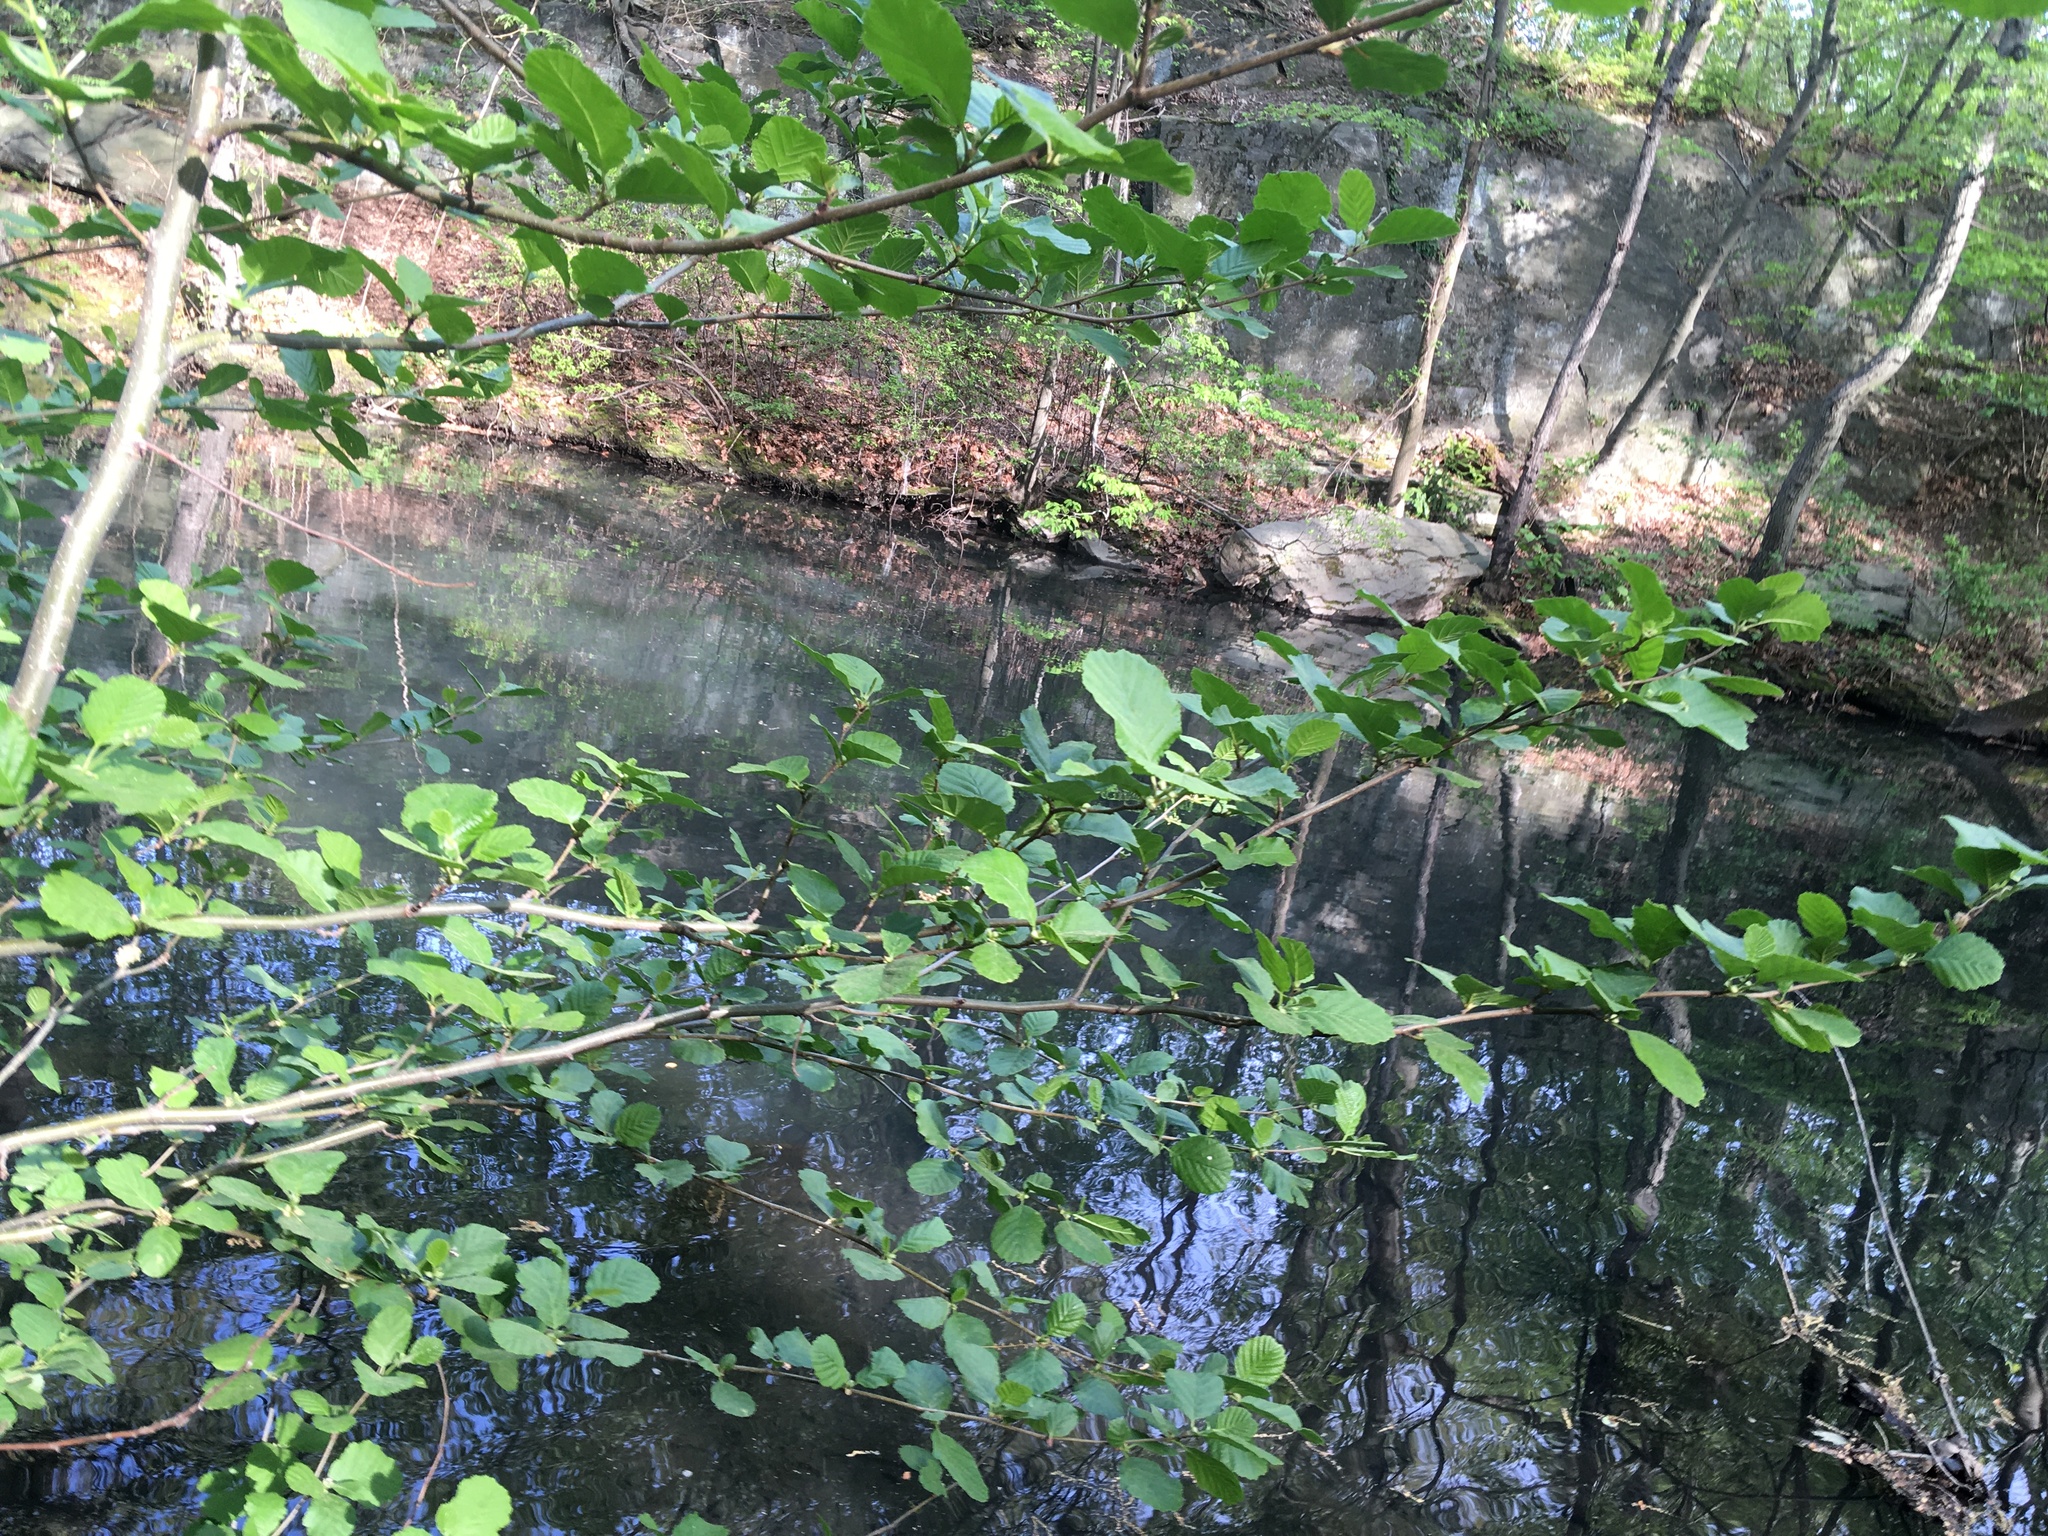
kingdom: Plantae
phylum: Tracheophyta
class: Magnoliopsida
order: Fagales
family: Betulaceae
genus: Alnus
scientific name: Alnus glutinosa
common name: Black alder
